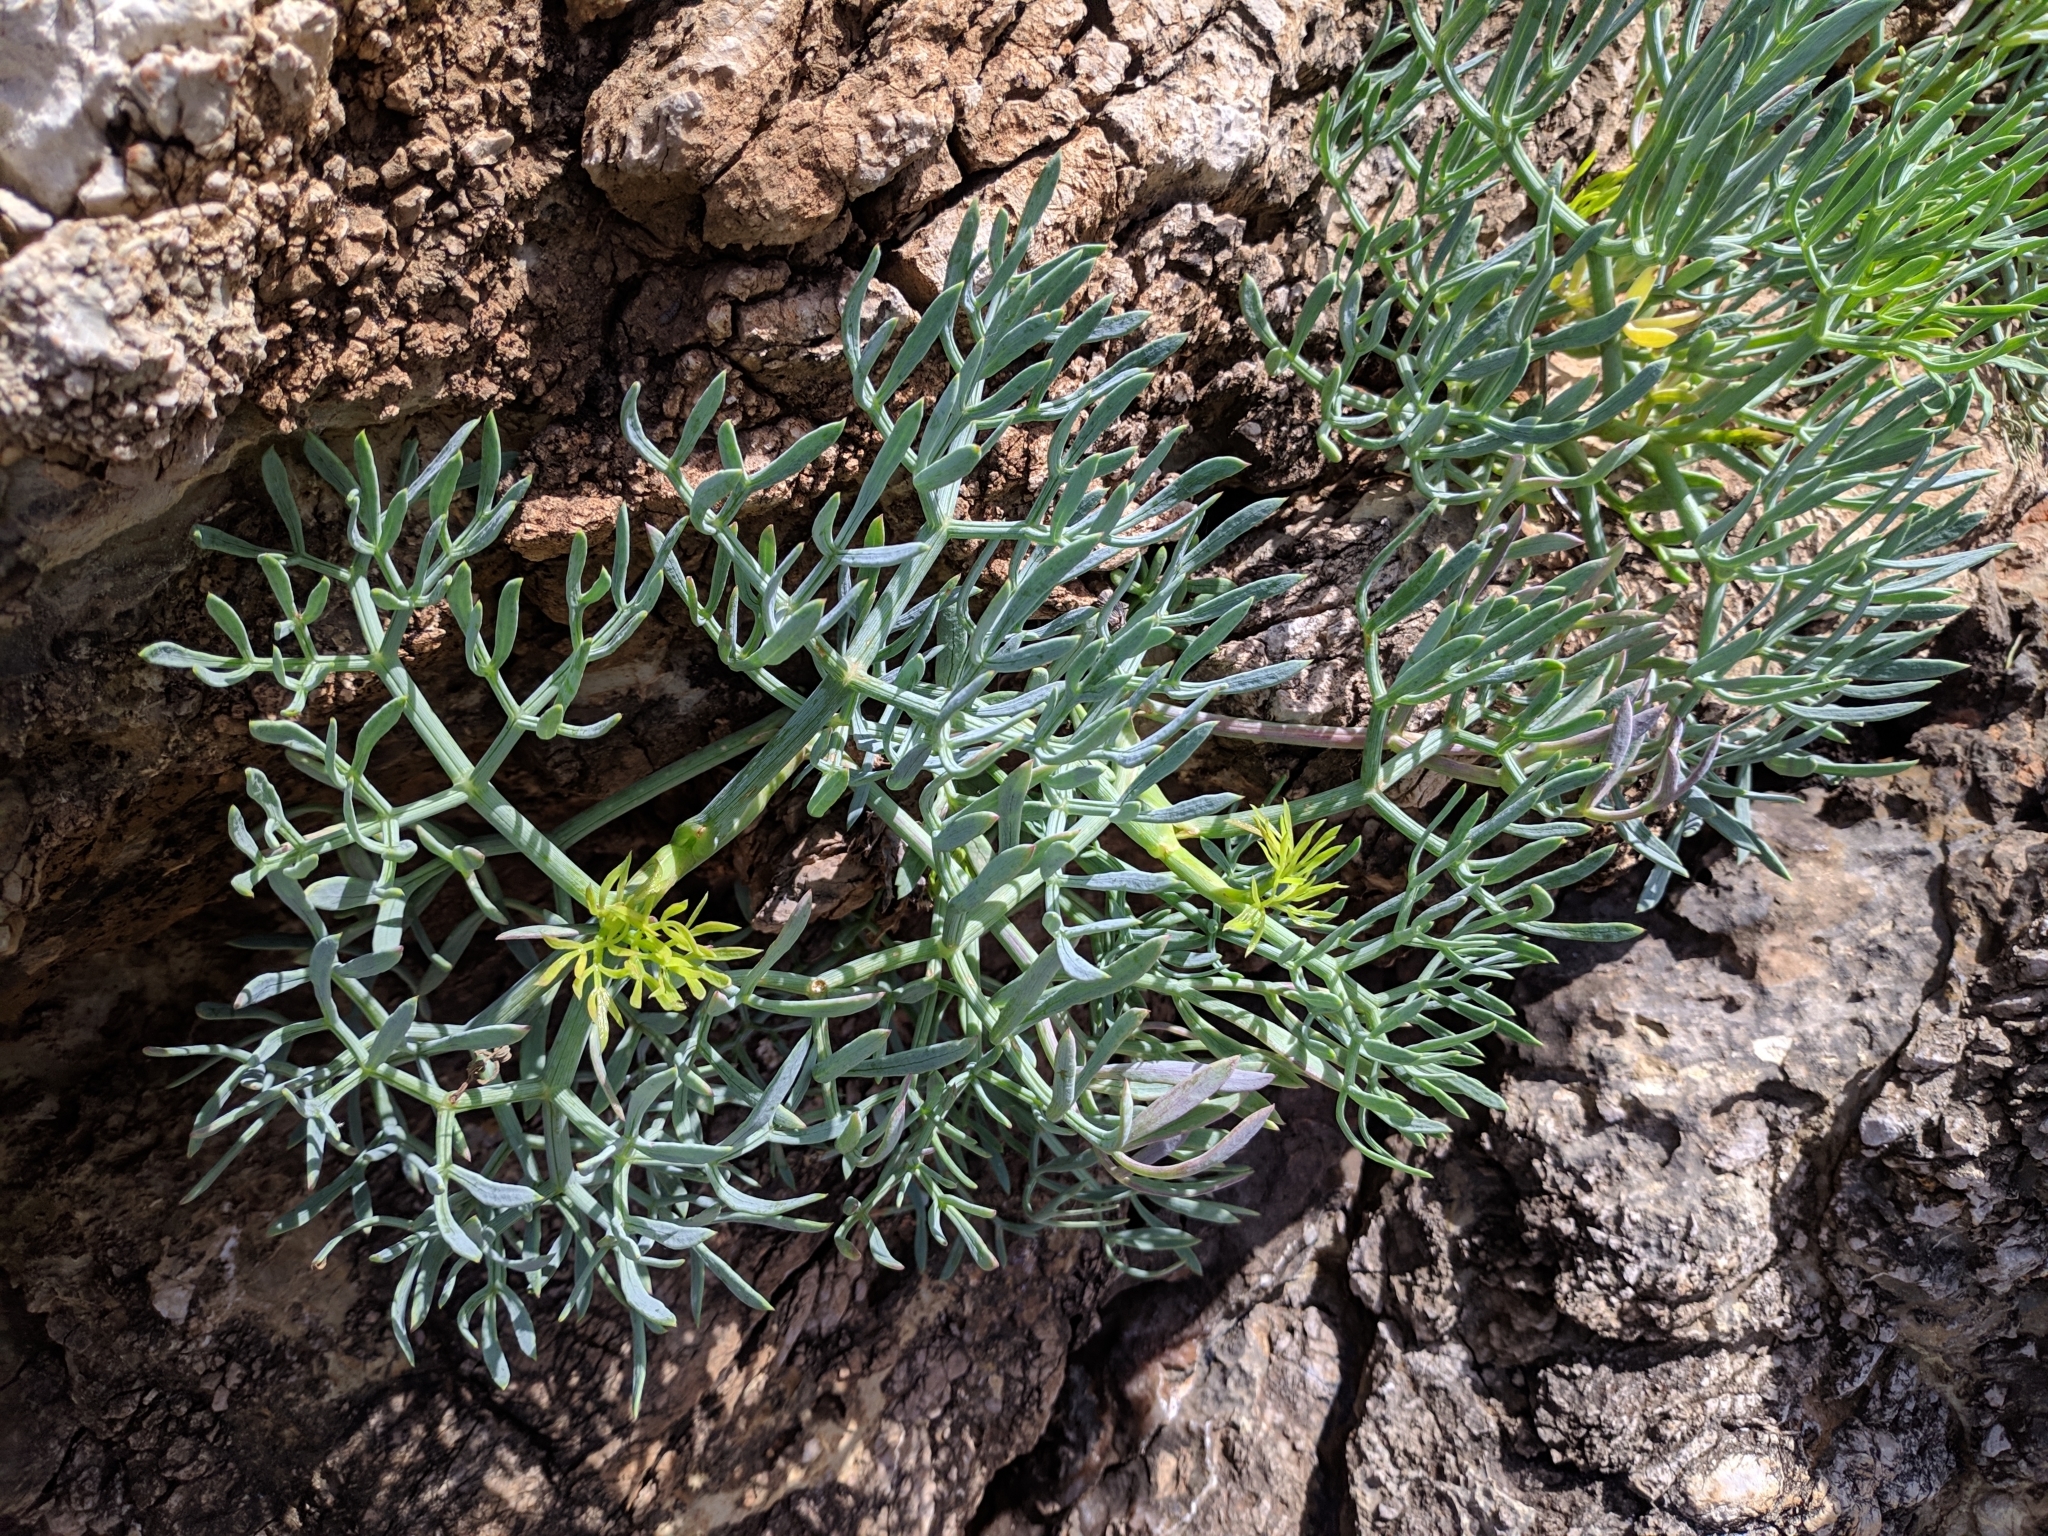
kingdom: Plantae
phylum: Tracheophyta
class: Magnoliopsida
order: Apiales
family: Apiaceae
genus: Crithmum
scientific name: Crithmum maritimum
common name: Rock samphire
